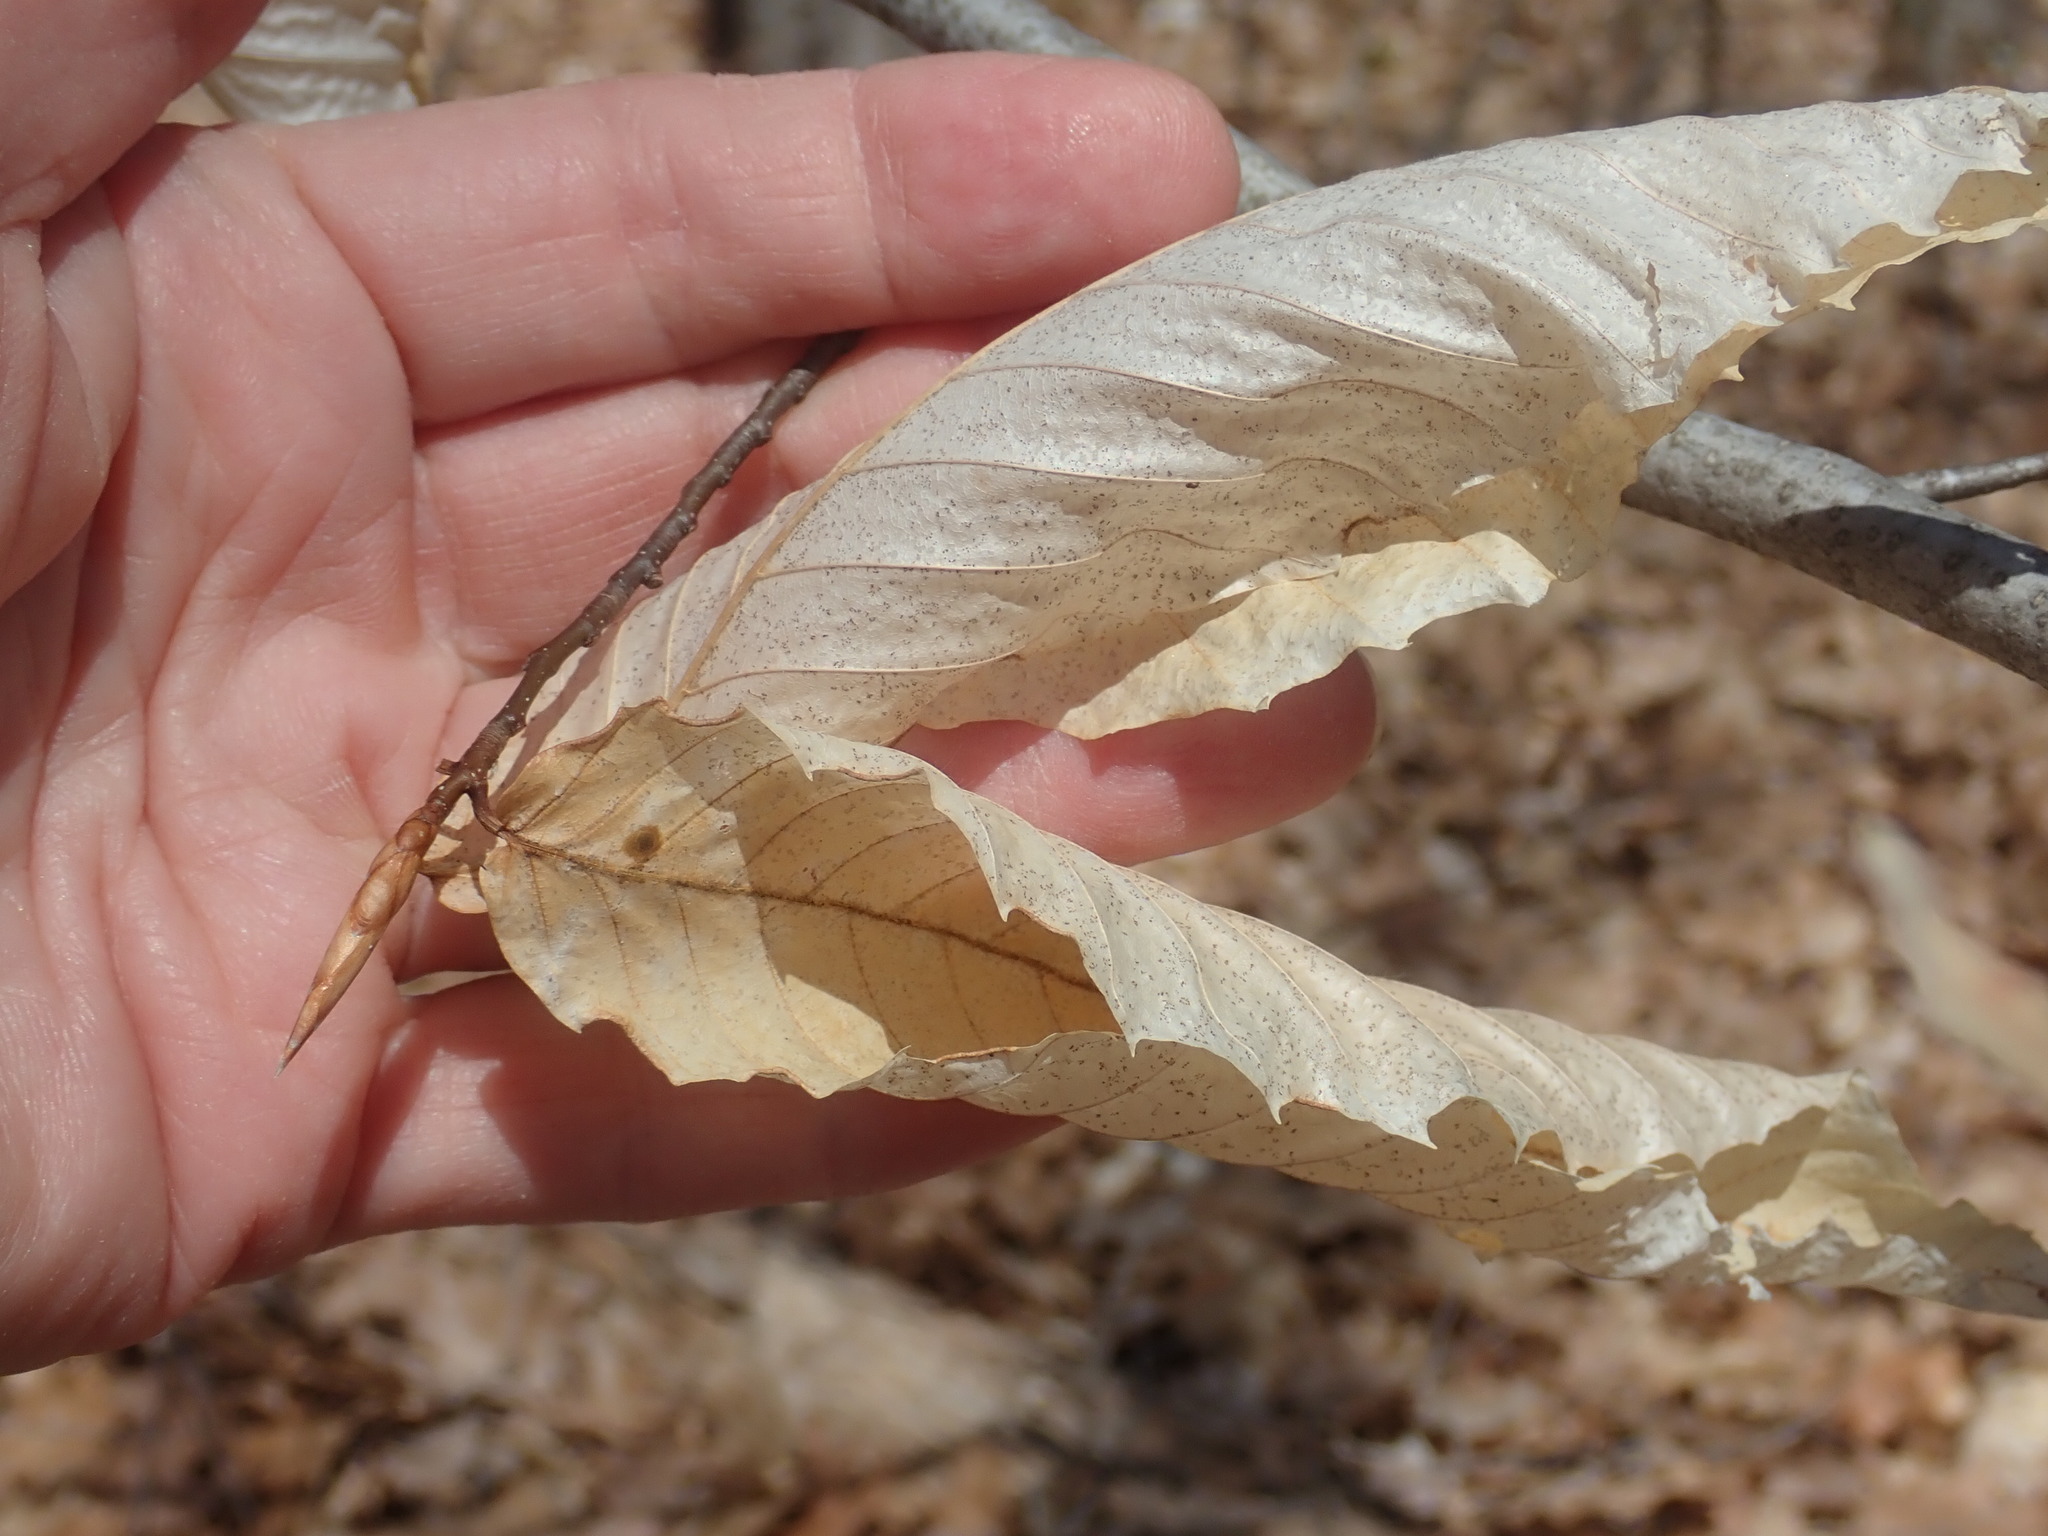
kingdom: Plantae
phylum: Tracheophyta
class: Magnoliopsida
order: Fagales
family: Fagaceae
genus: Fagus
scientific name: Fagus grandifolia
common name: American beech
